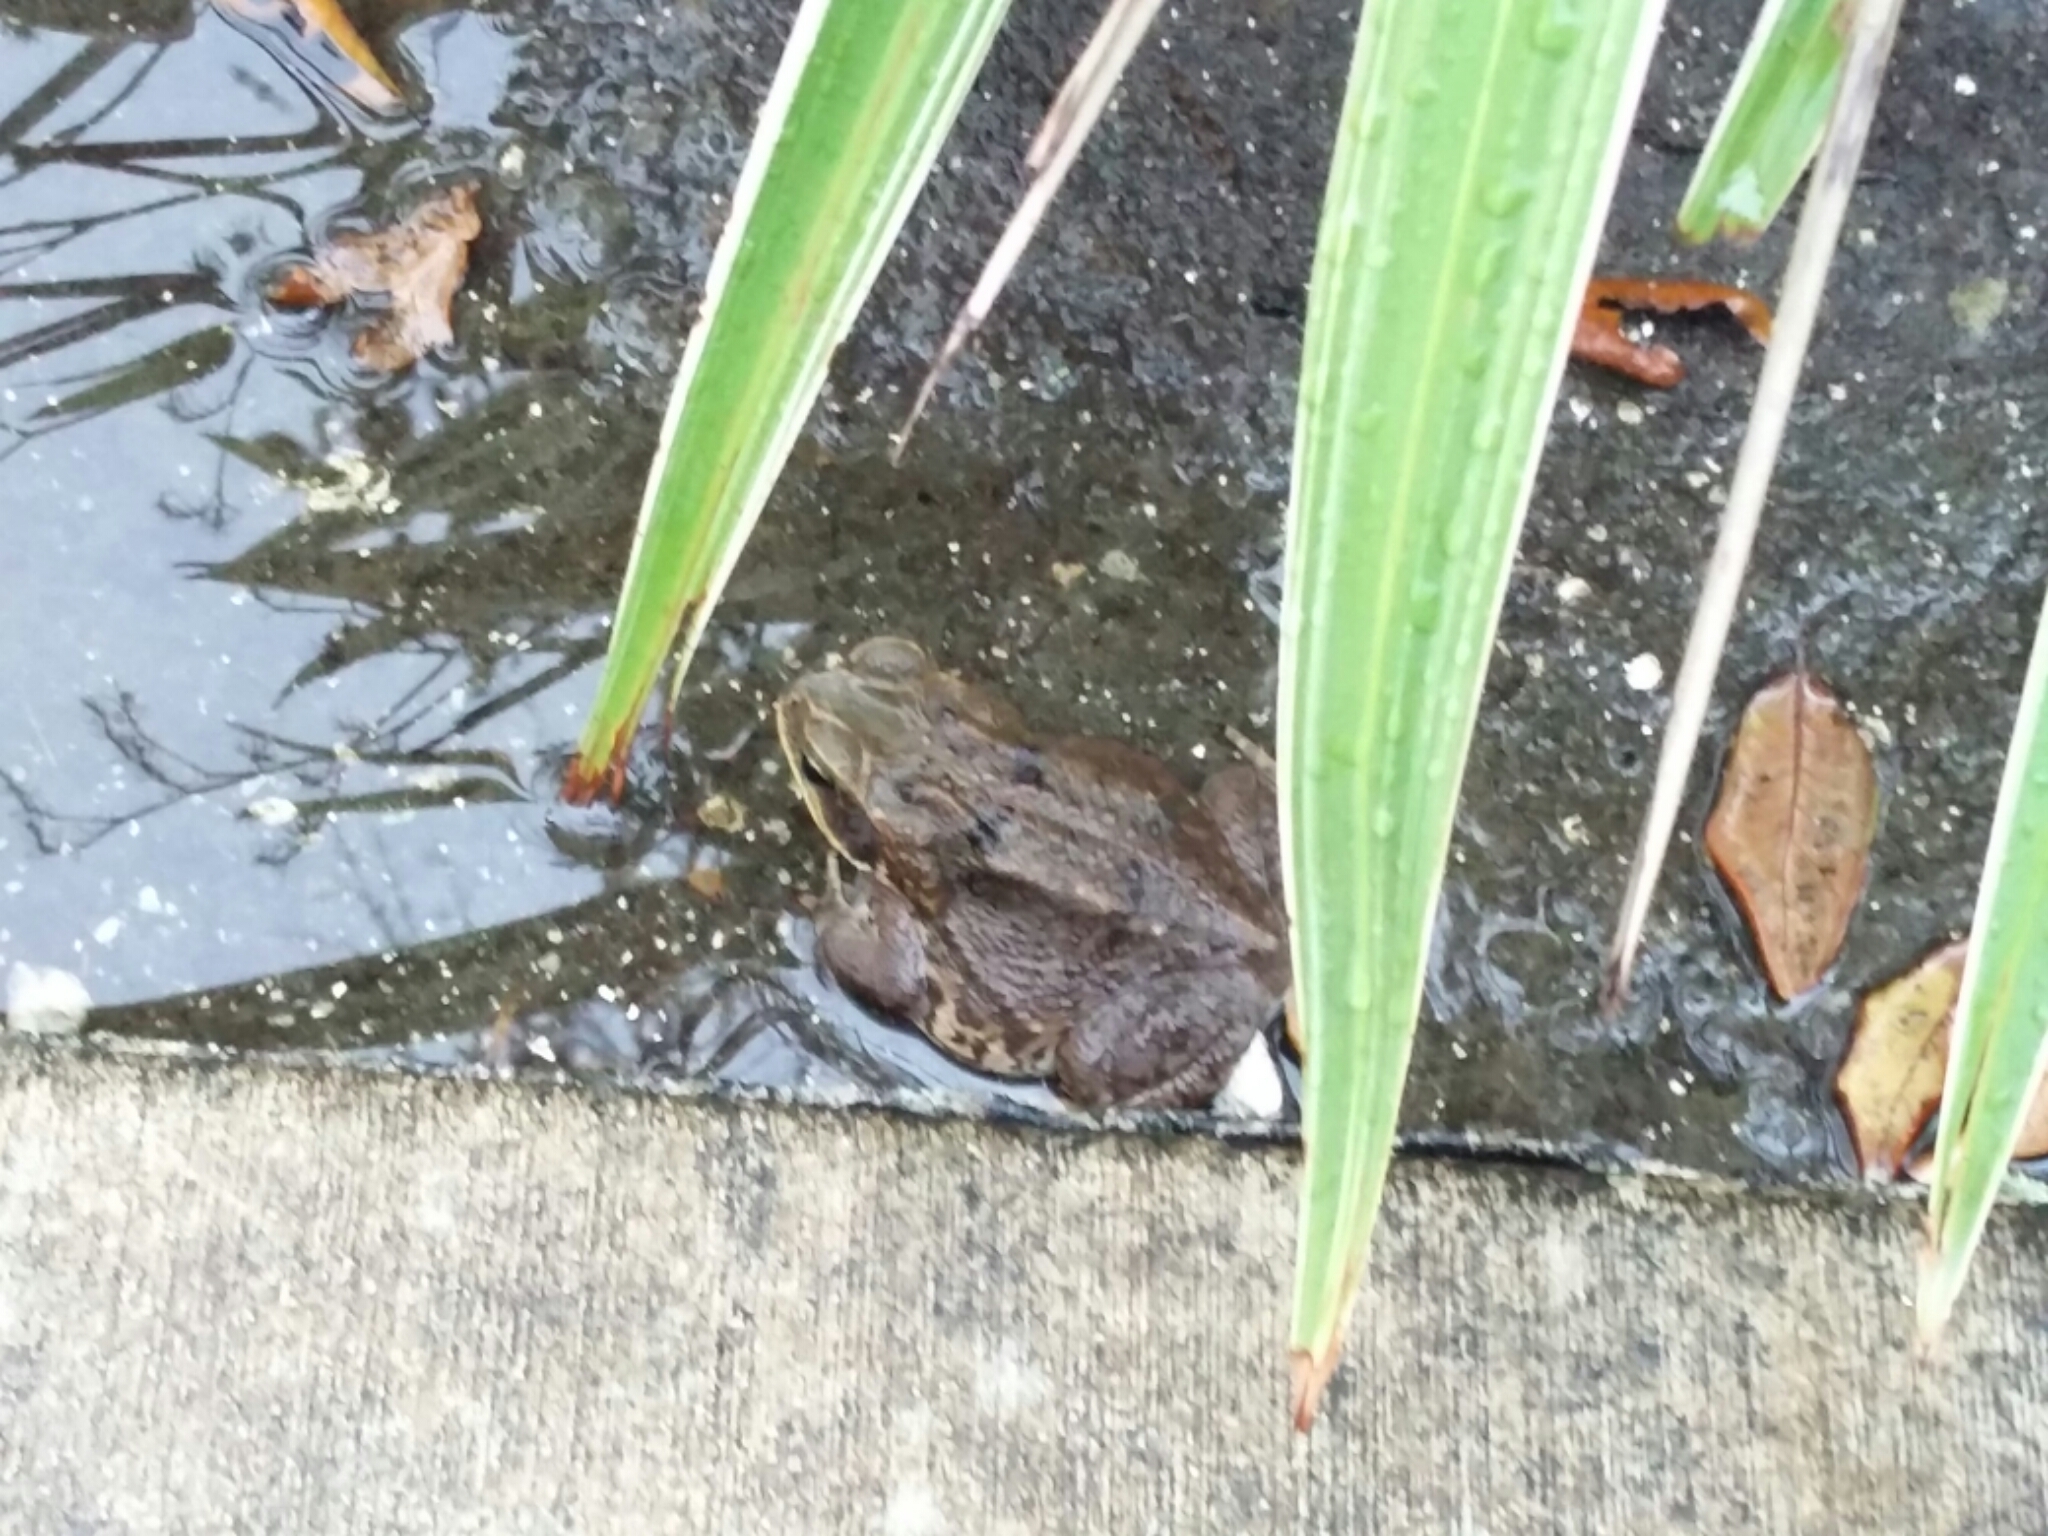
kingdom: Animalia
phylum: Chordata
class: Amphibia
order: Anura
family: Bufonidae
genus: Rhinella
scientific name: Rhinella marina
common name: Cane toad
